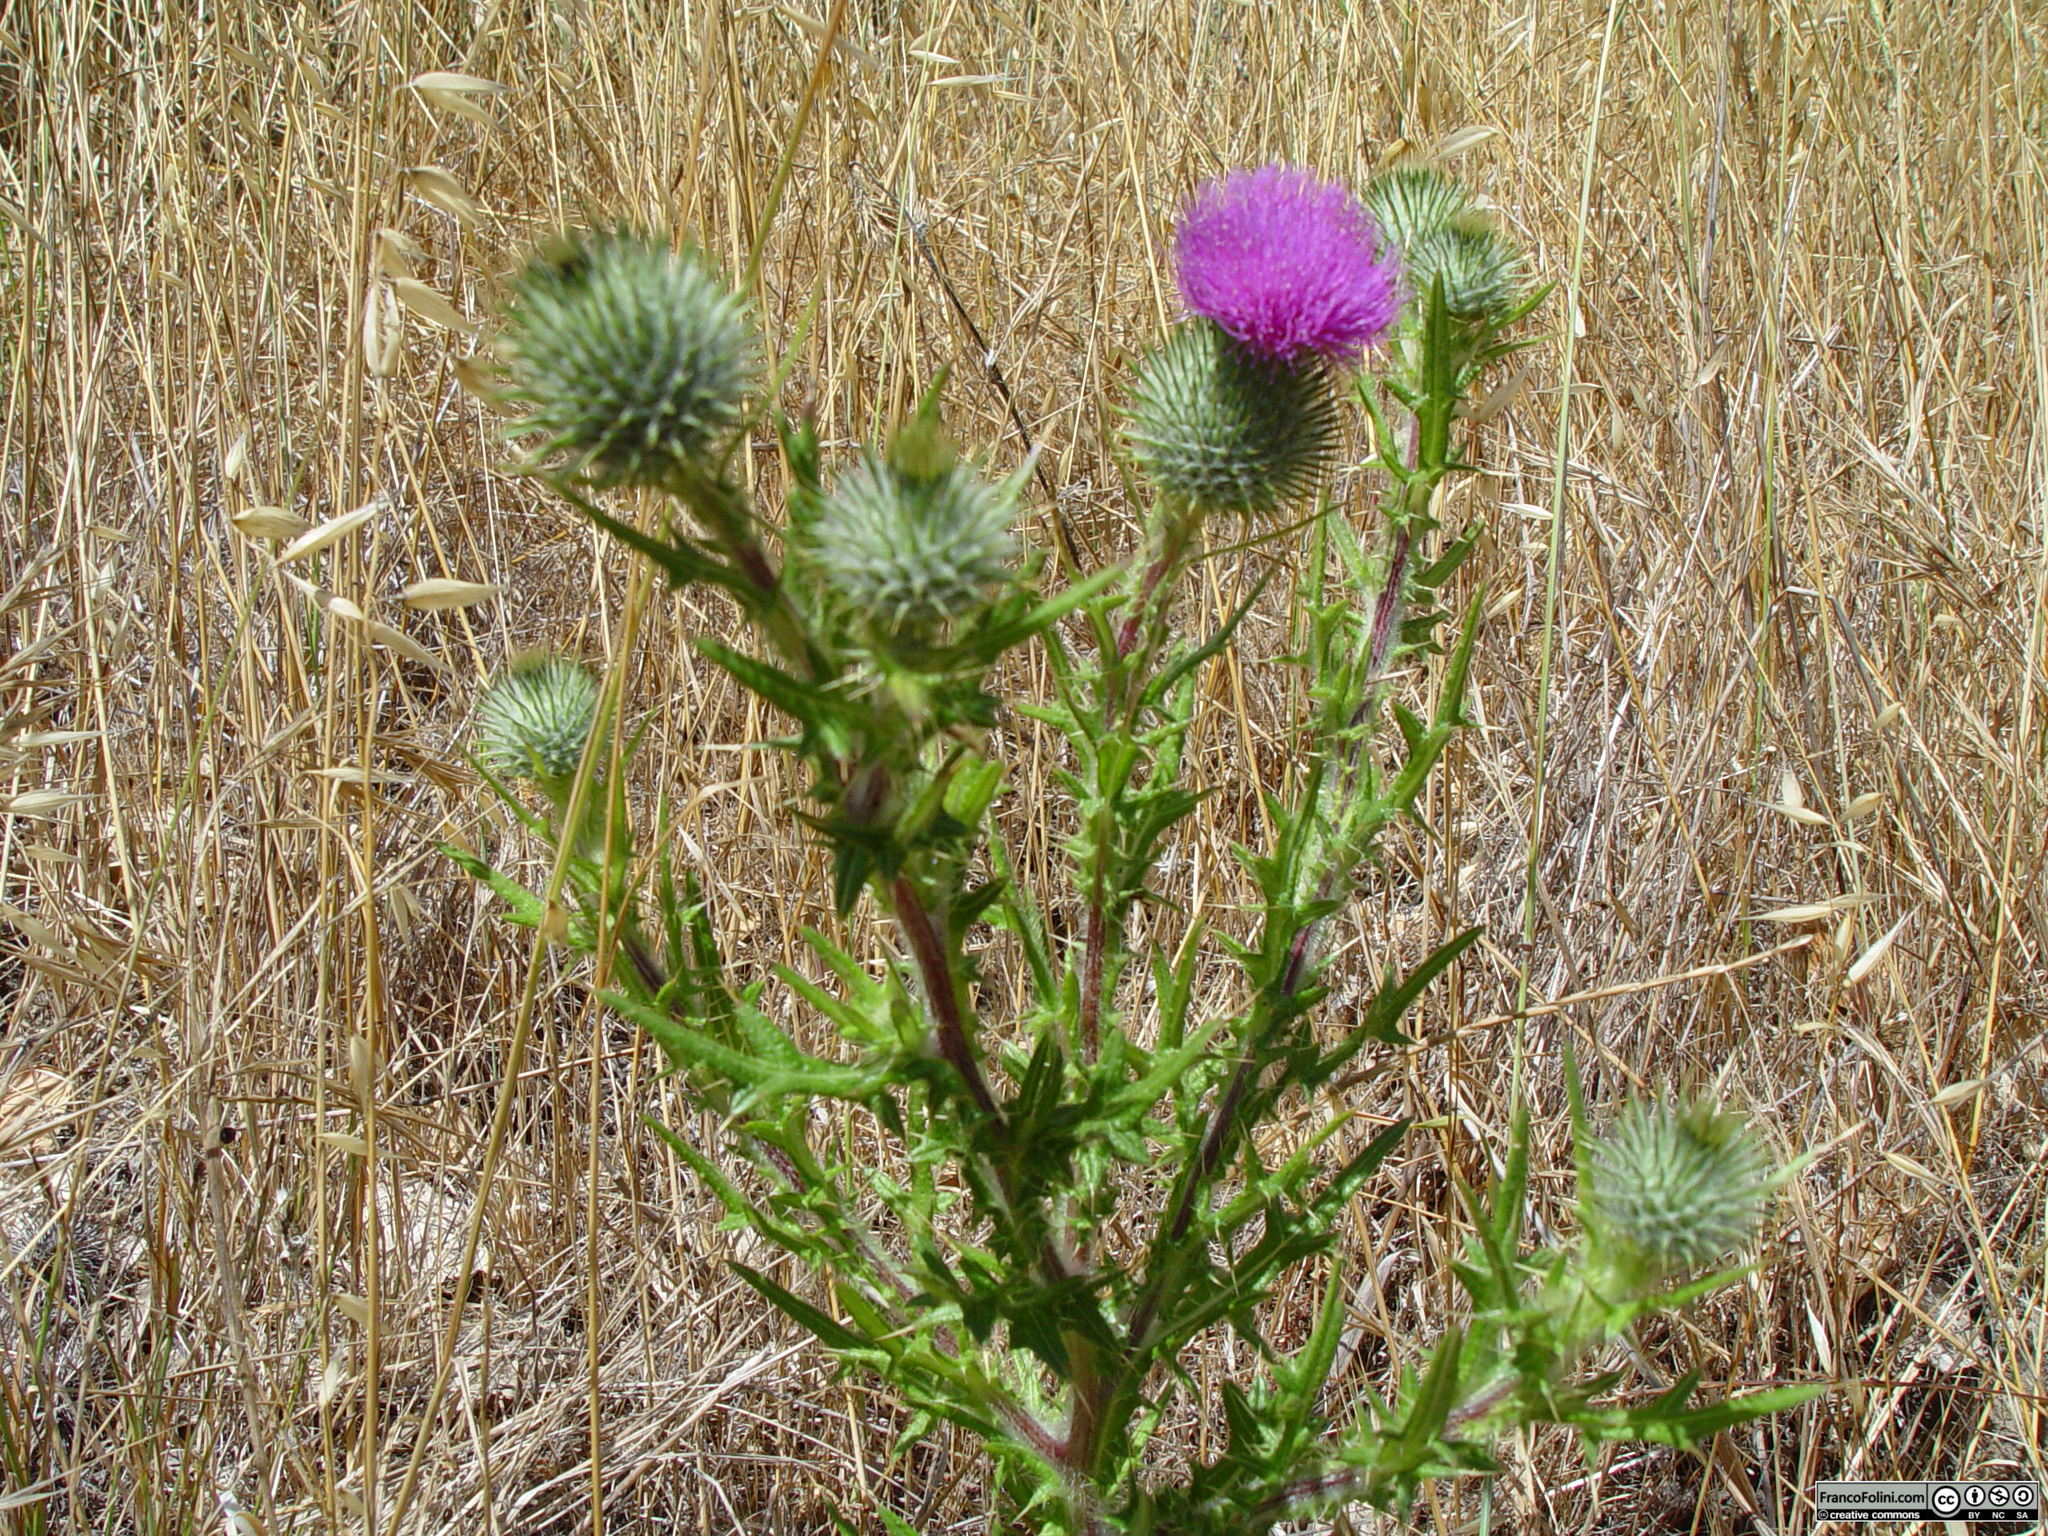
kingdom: Plantae
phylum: Tracheophyta
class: Magnoliopsida
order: Asterales
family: Asteraceae
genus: Cirsium
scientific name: Cirsium vulgare
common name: Bull thistle
